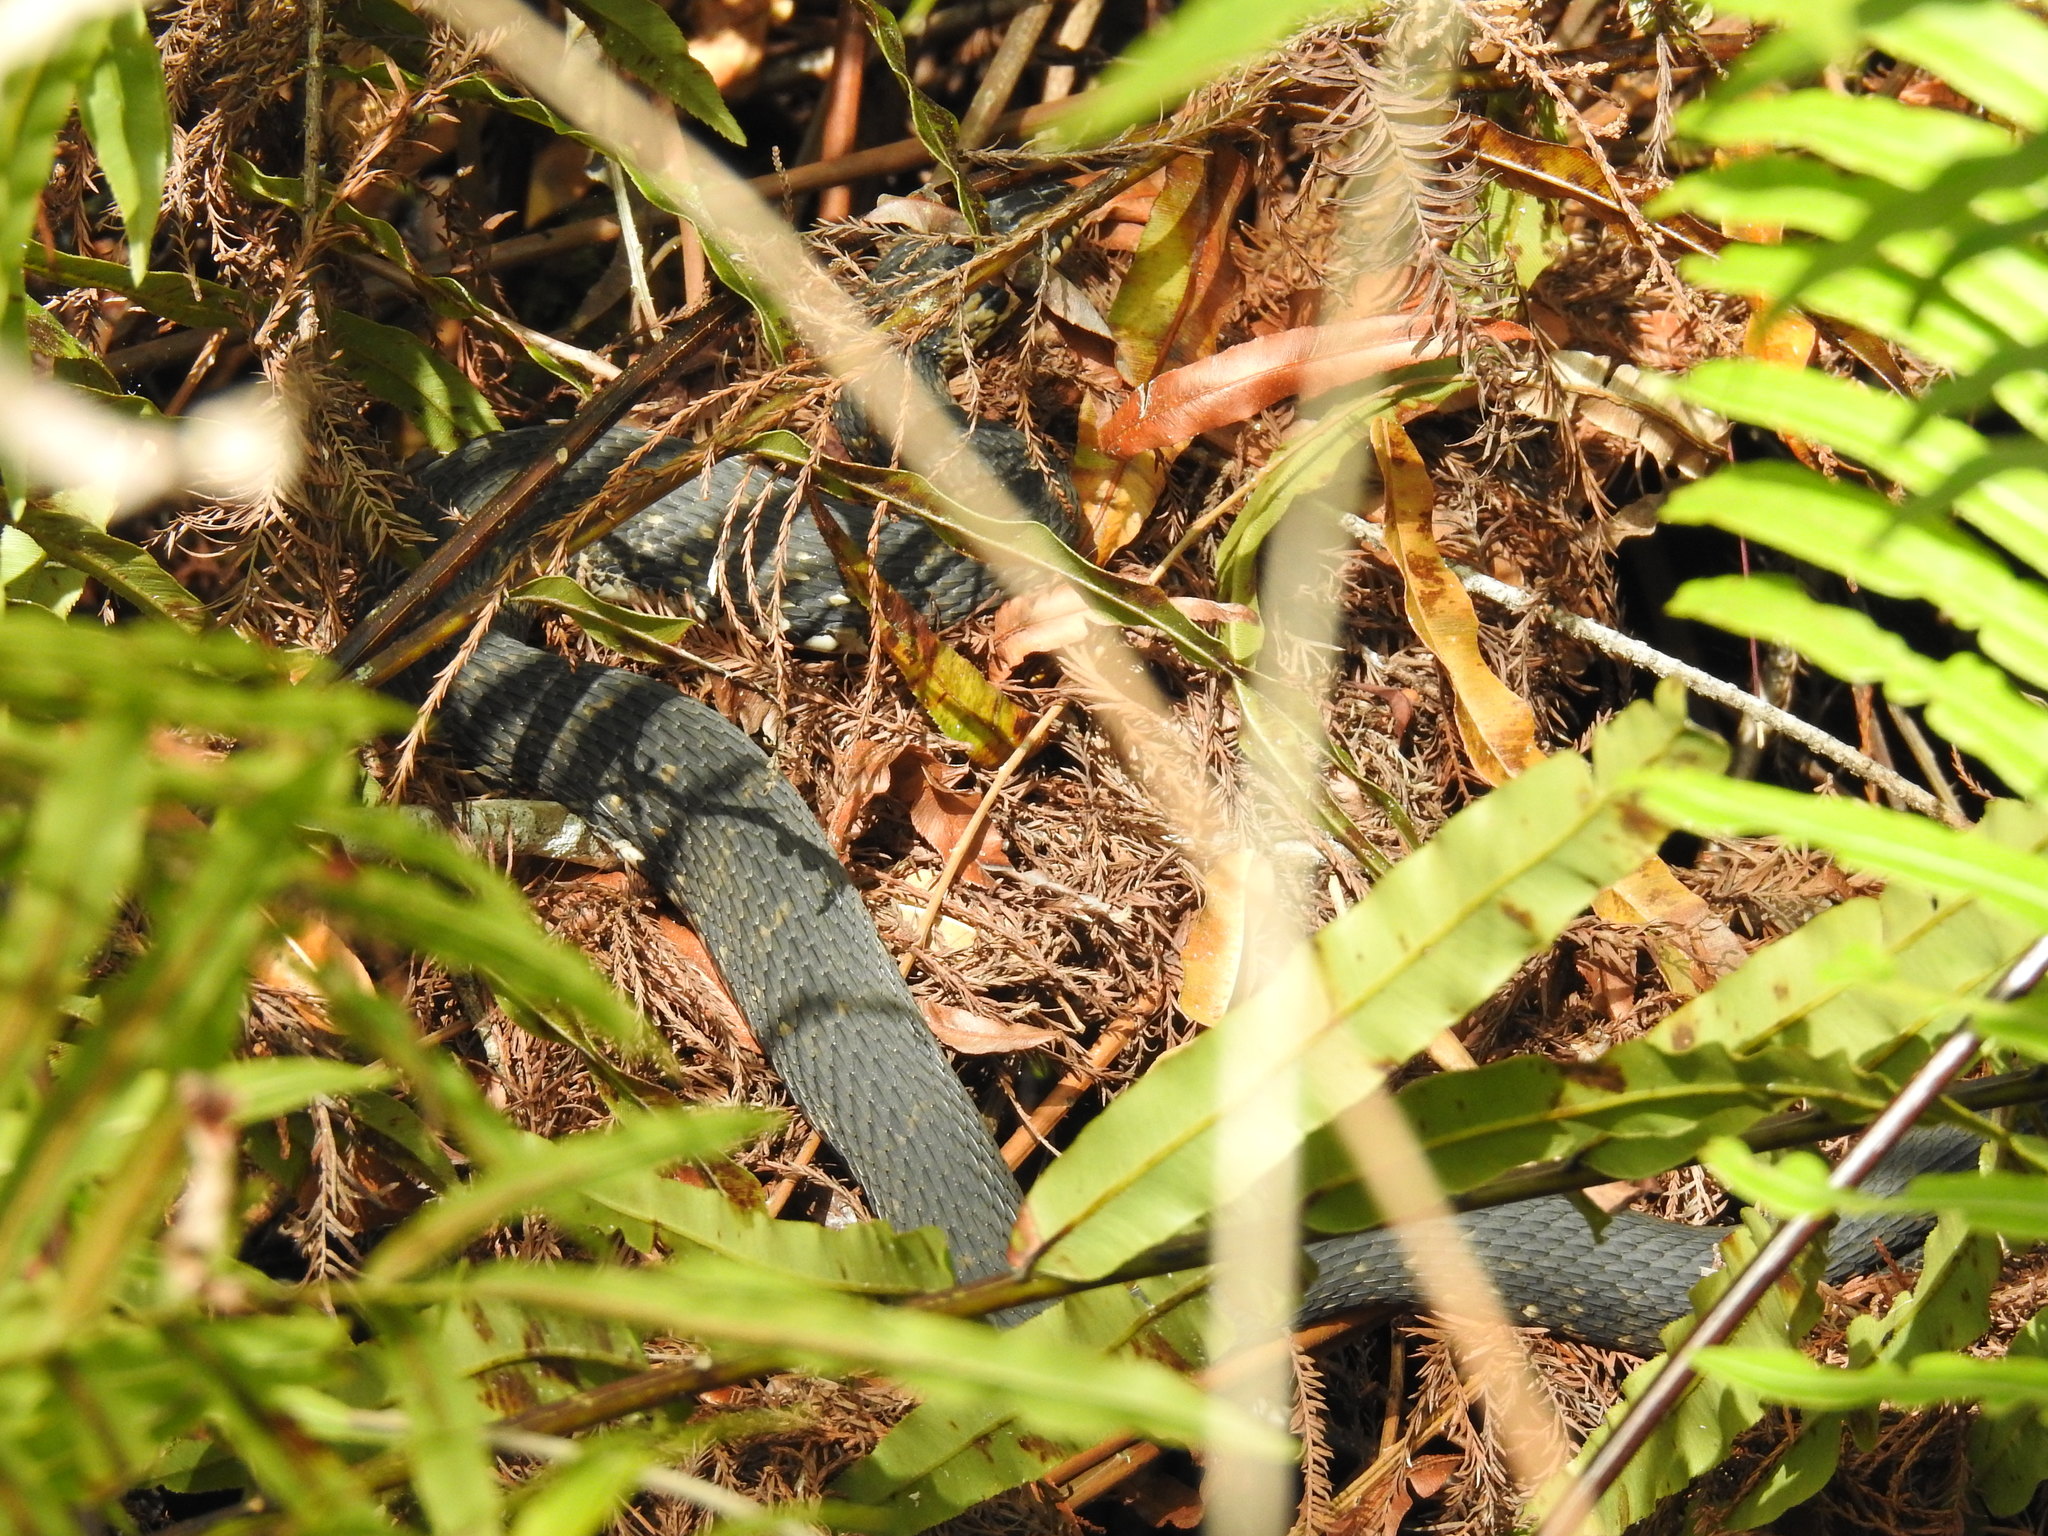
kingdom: Animalia
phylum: Chordata
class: Squamata
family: Colubridae
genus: Nerodia
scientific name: Nerodia fasciata
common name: Southern water snake
